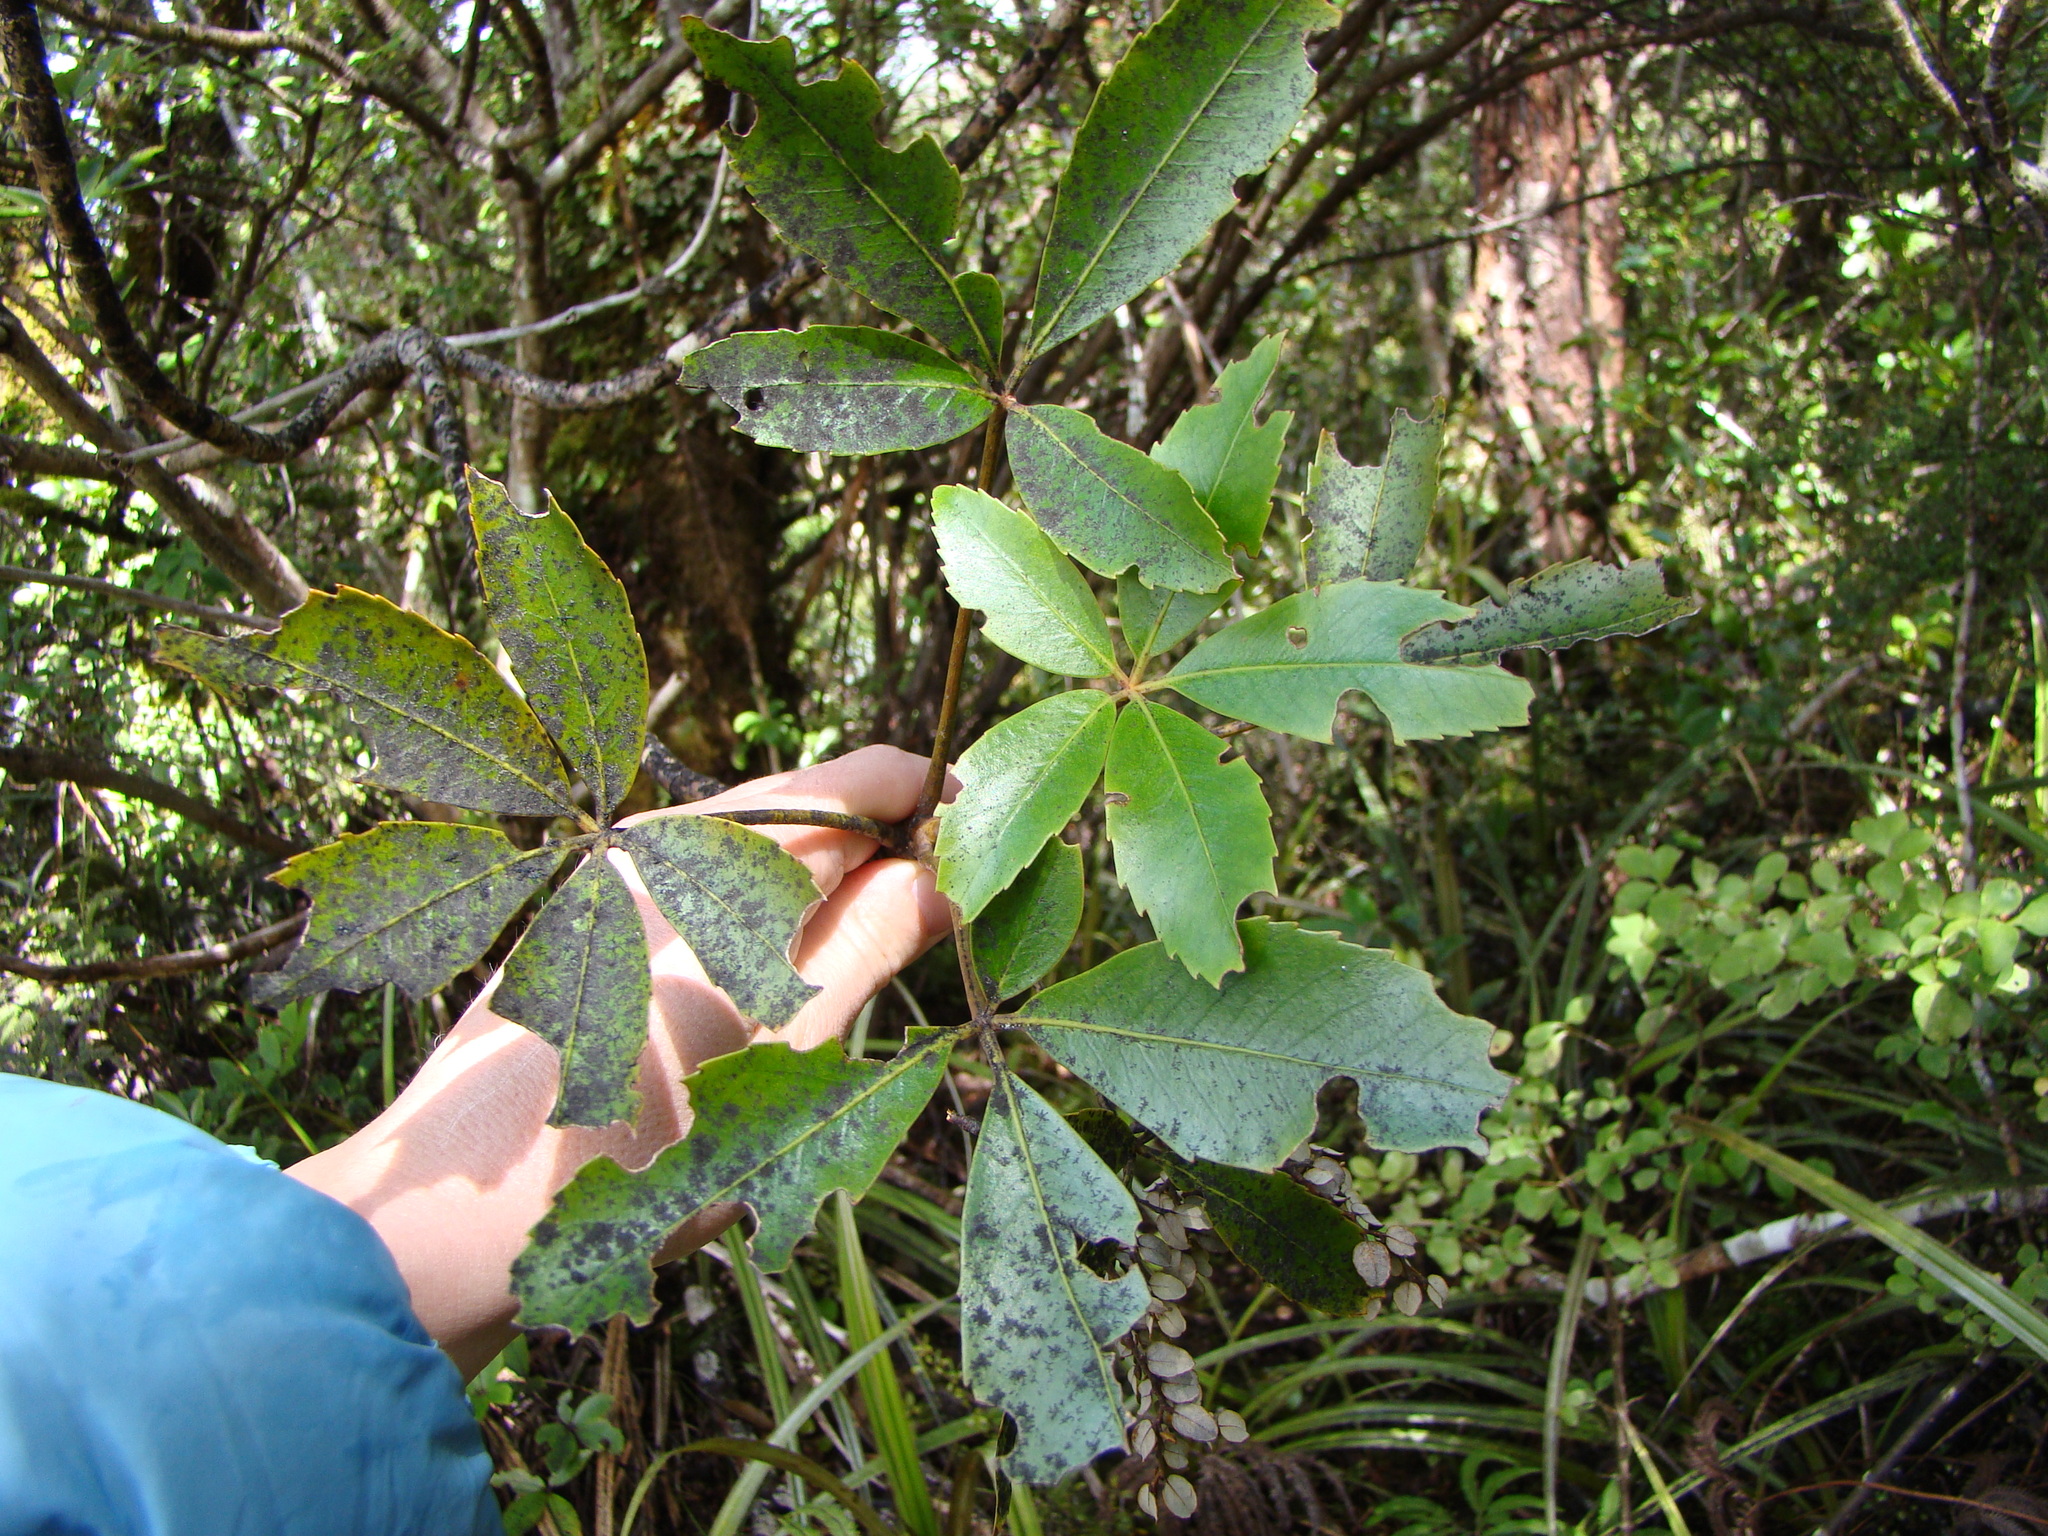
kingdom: Plantae
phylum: Tracheophyta
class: Magnoliopsida
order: Apiales
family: Araliaceae
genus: Neopanax
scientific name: Neopanax colensoi
